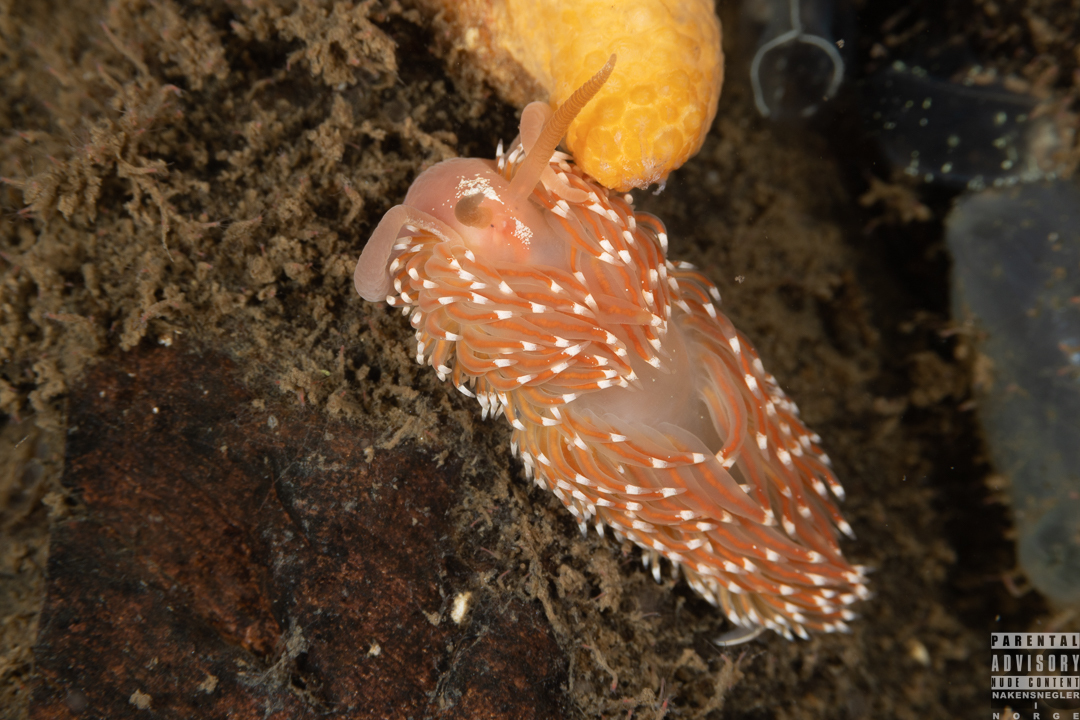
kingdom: Animalia
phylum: Mollusca
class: Gastropoda
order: Nudibranchia
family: Facelinidae
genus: Facelina
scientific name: Facelina bostoniensis
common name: Boston facelina
